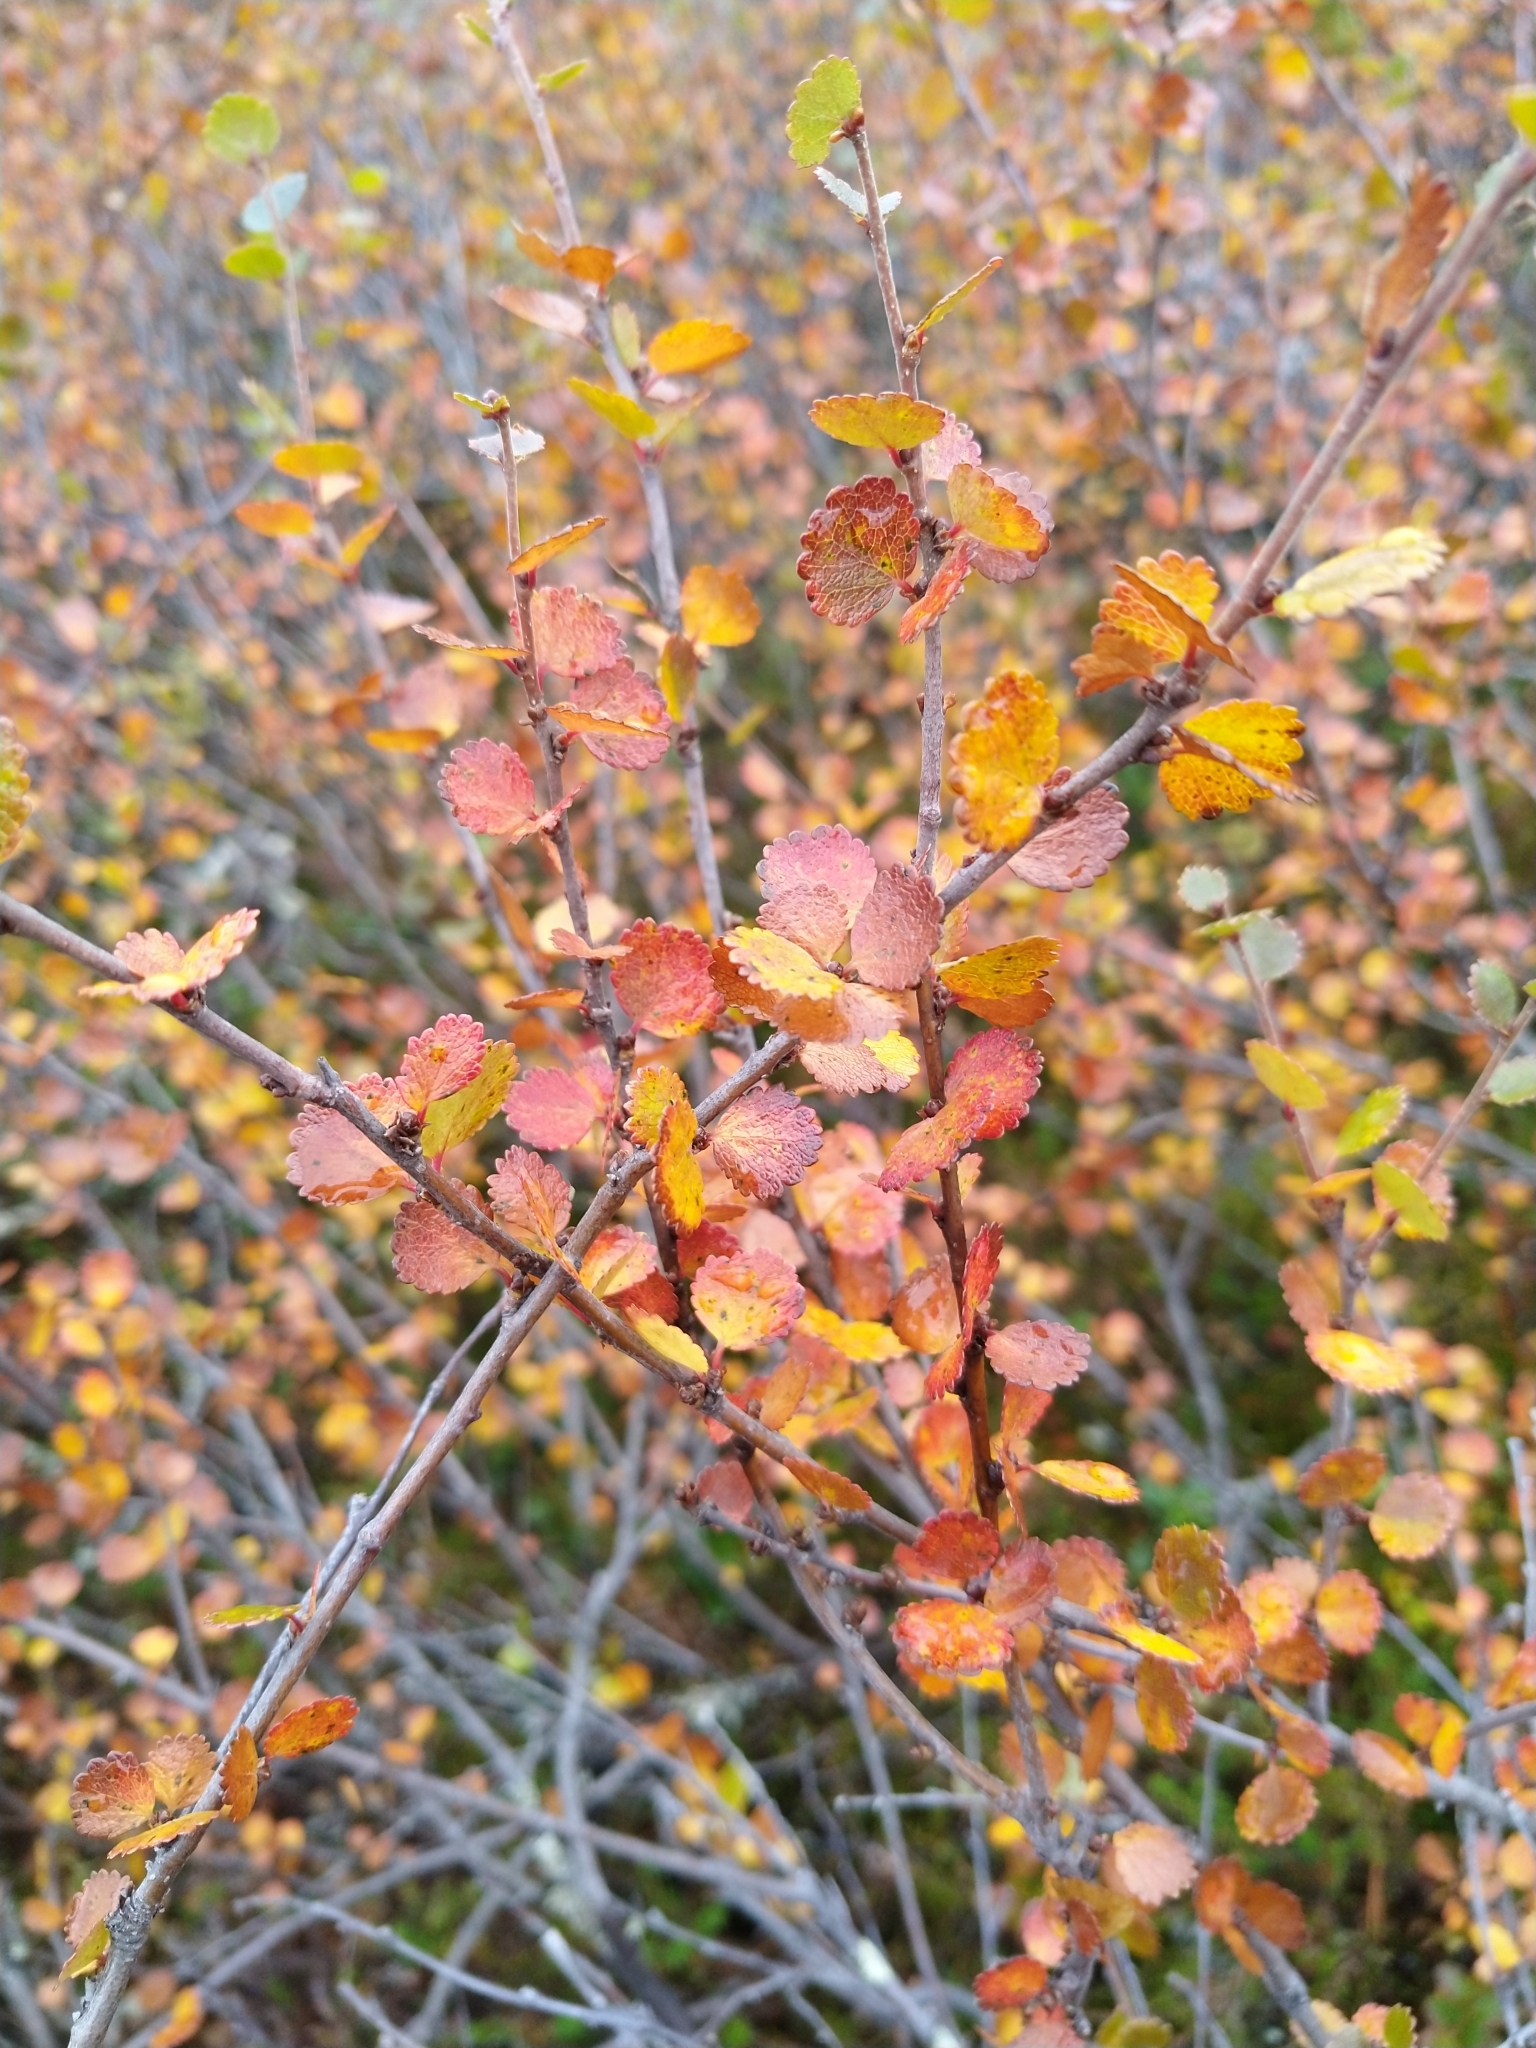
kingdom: Plantae
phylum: Tracheophyta
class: Magnoliopsida
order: Fagales
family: Betulaceae
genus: Betula
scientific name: Betula nana
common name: Arctic dwarf birch
